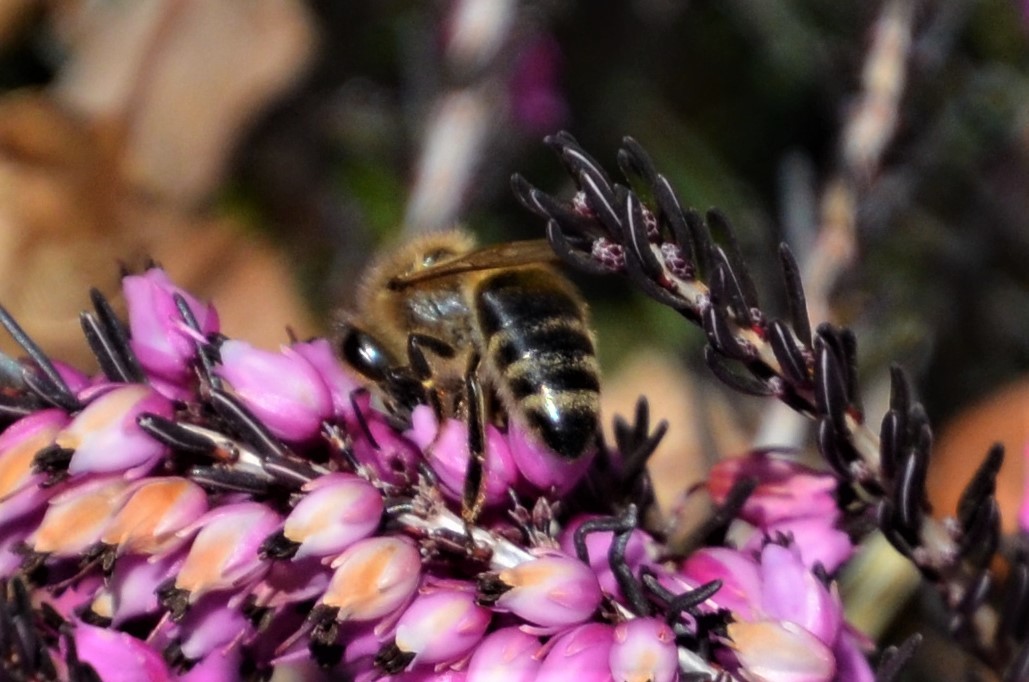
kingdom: Animalia
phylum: Arthropoda
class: Insecta
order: Hymenoptera
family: Apidae
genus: Apis
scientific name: Apis mellifera
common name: Honey bee
